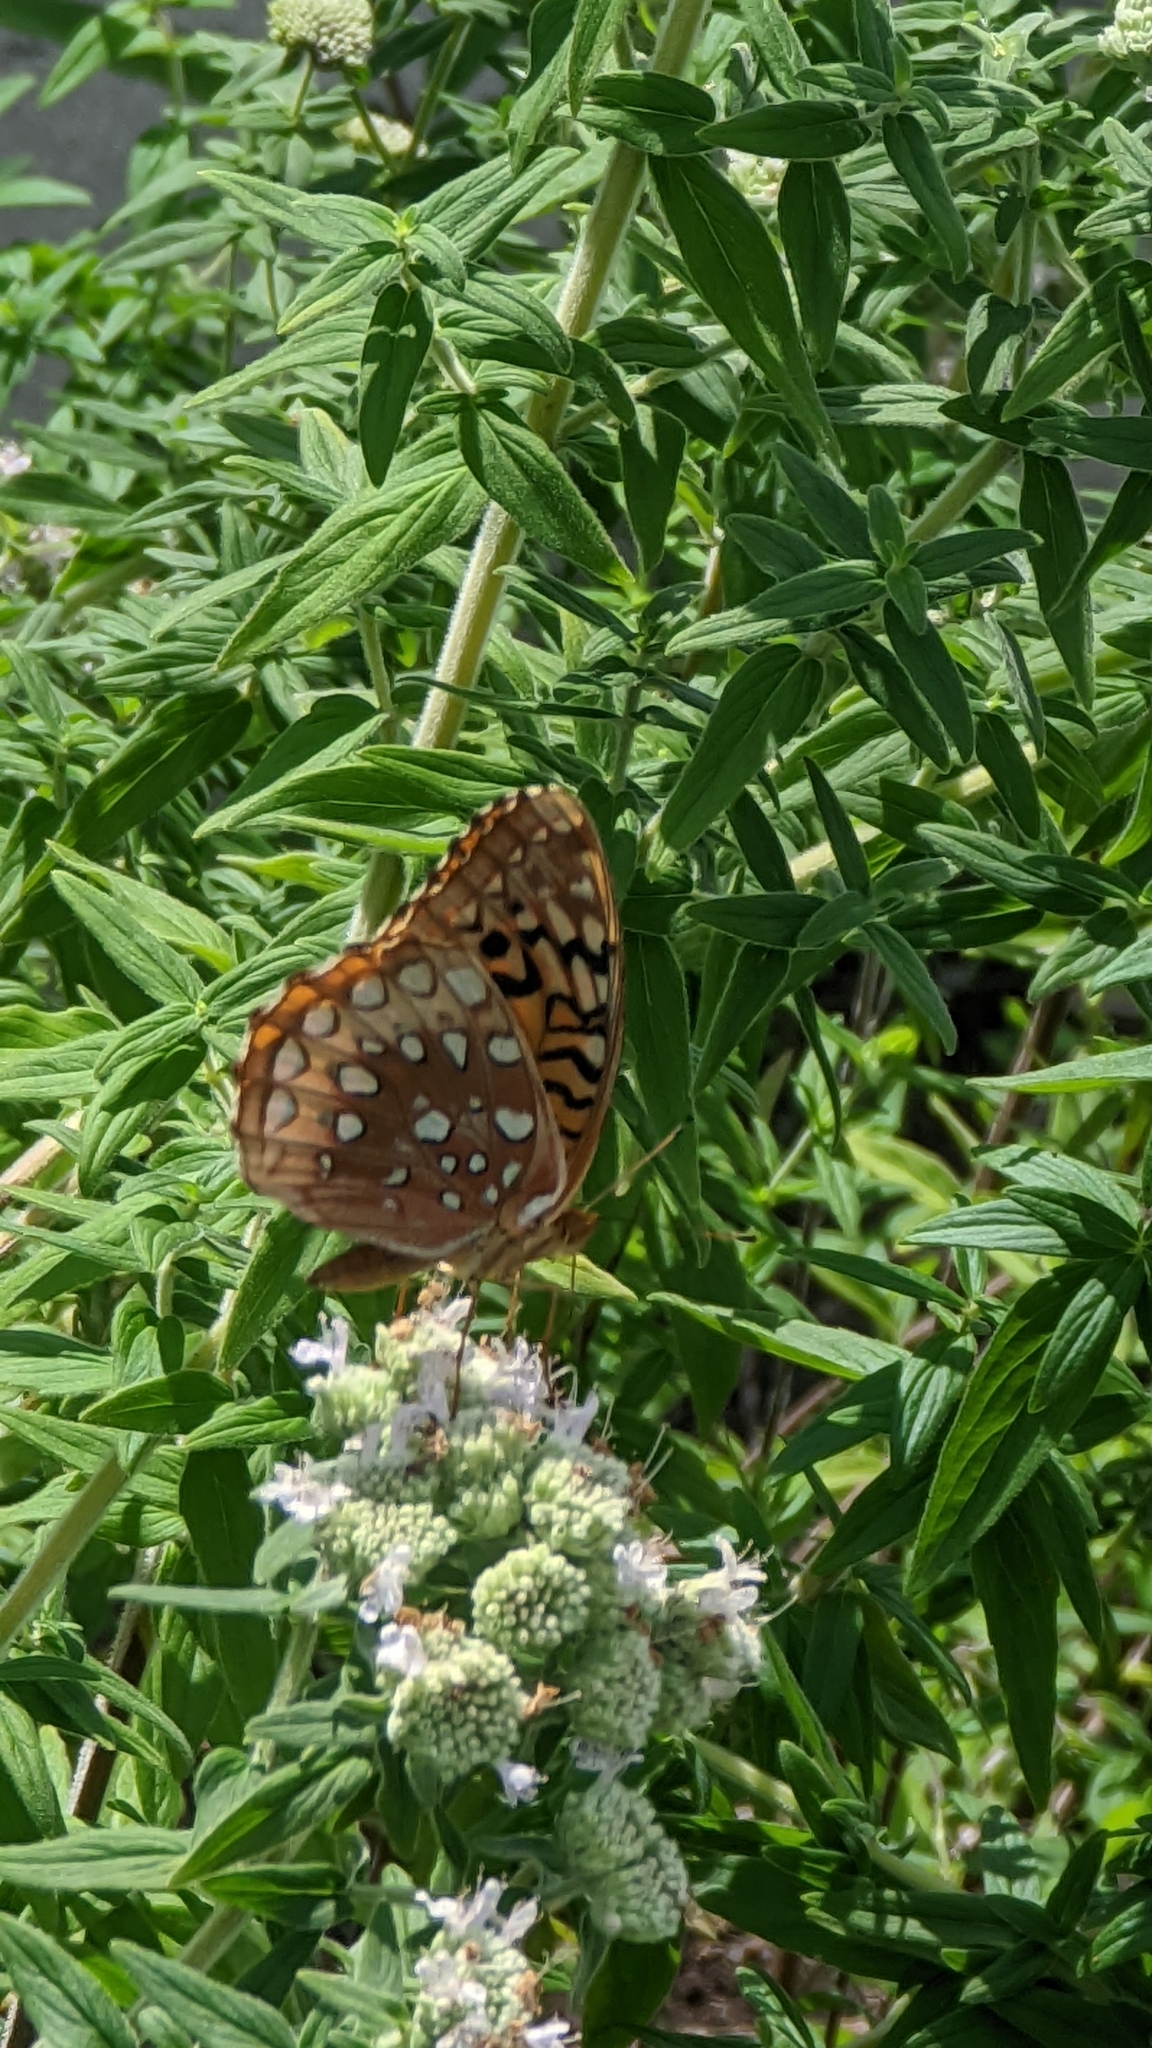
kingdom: Animalia
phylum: Arthropoda
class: Insecta
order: Lepidoptera
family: Nymphalidae
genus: Speyeria
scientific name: Speyeria cybele
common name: Great spangled fritillary
